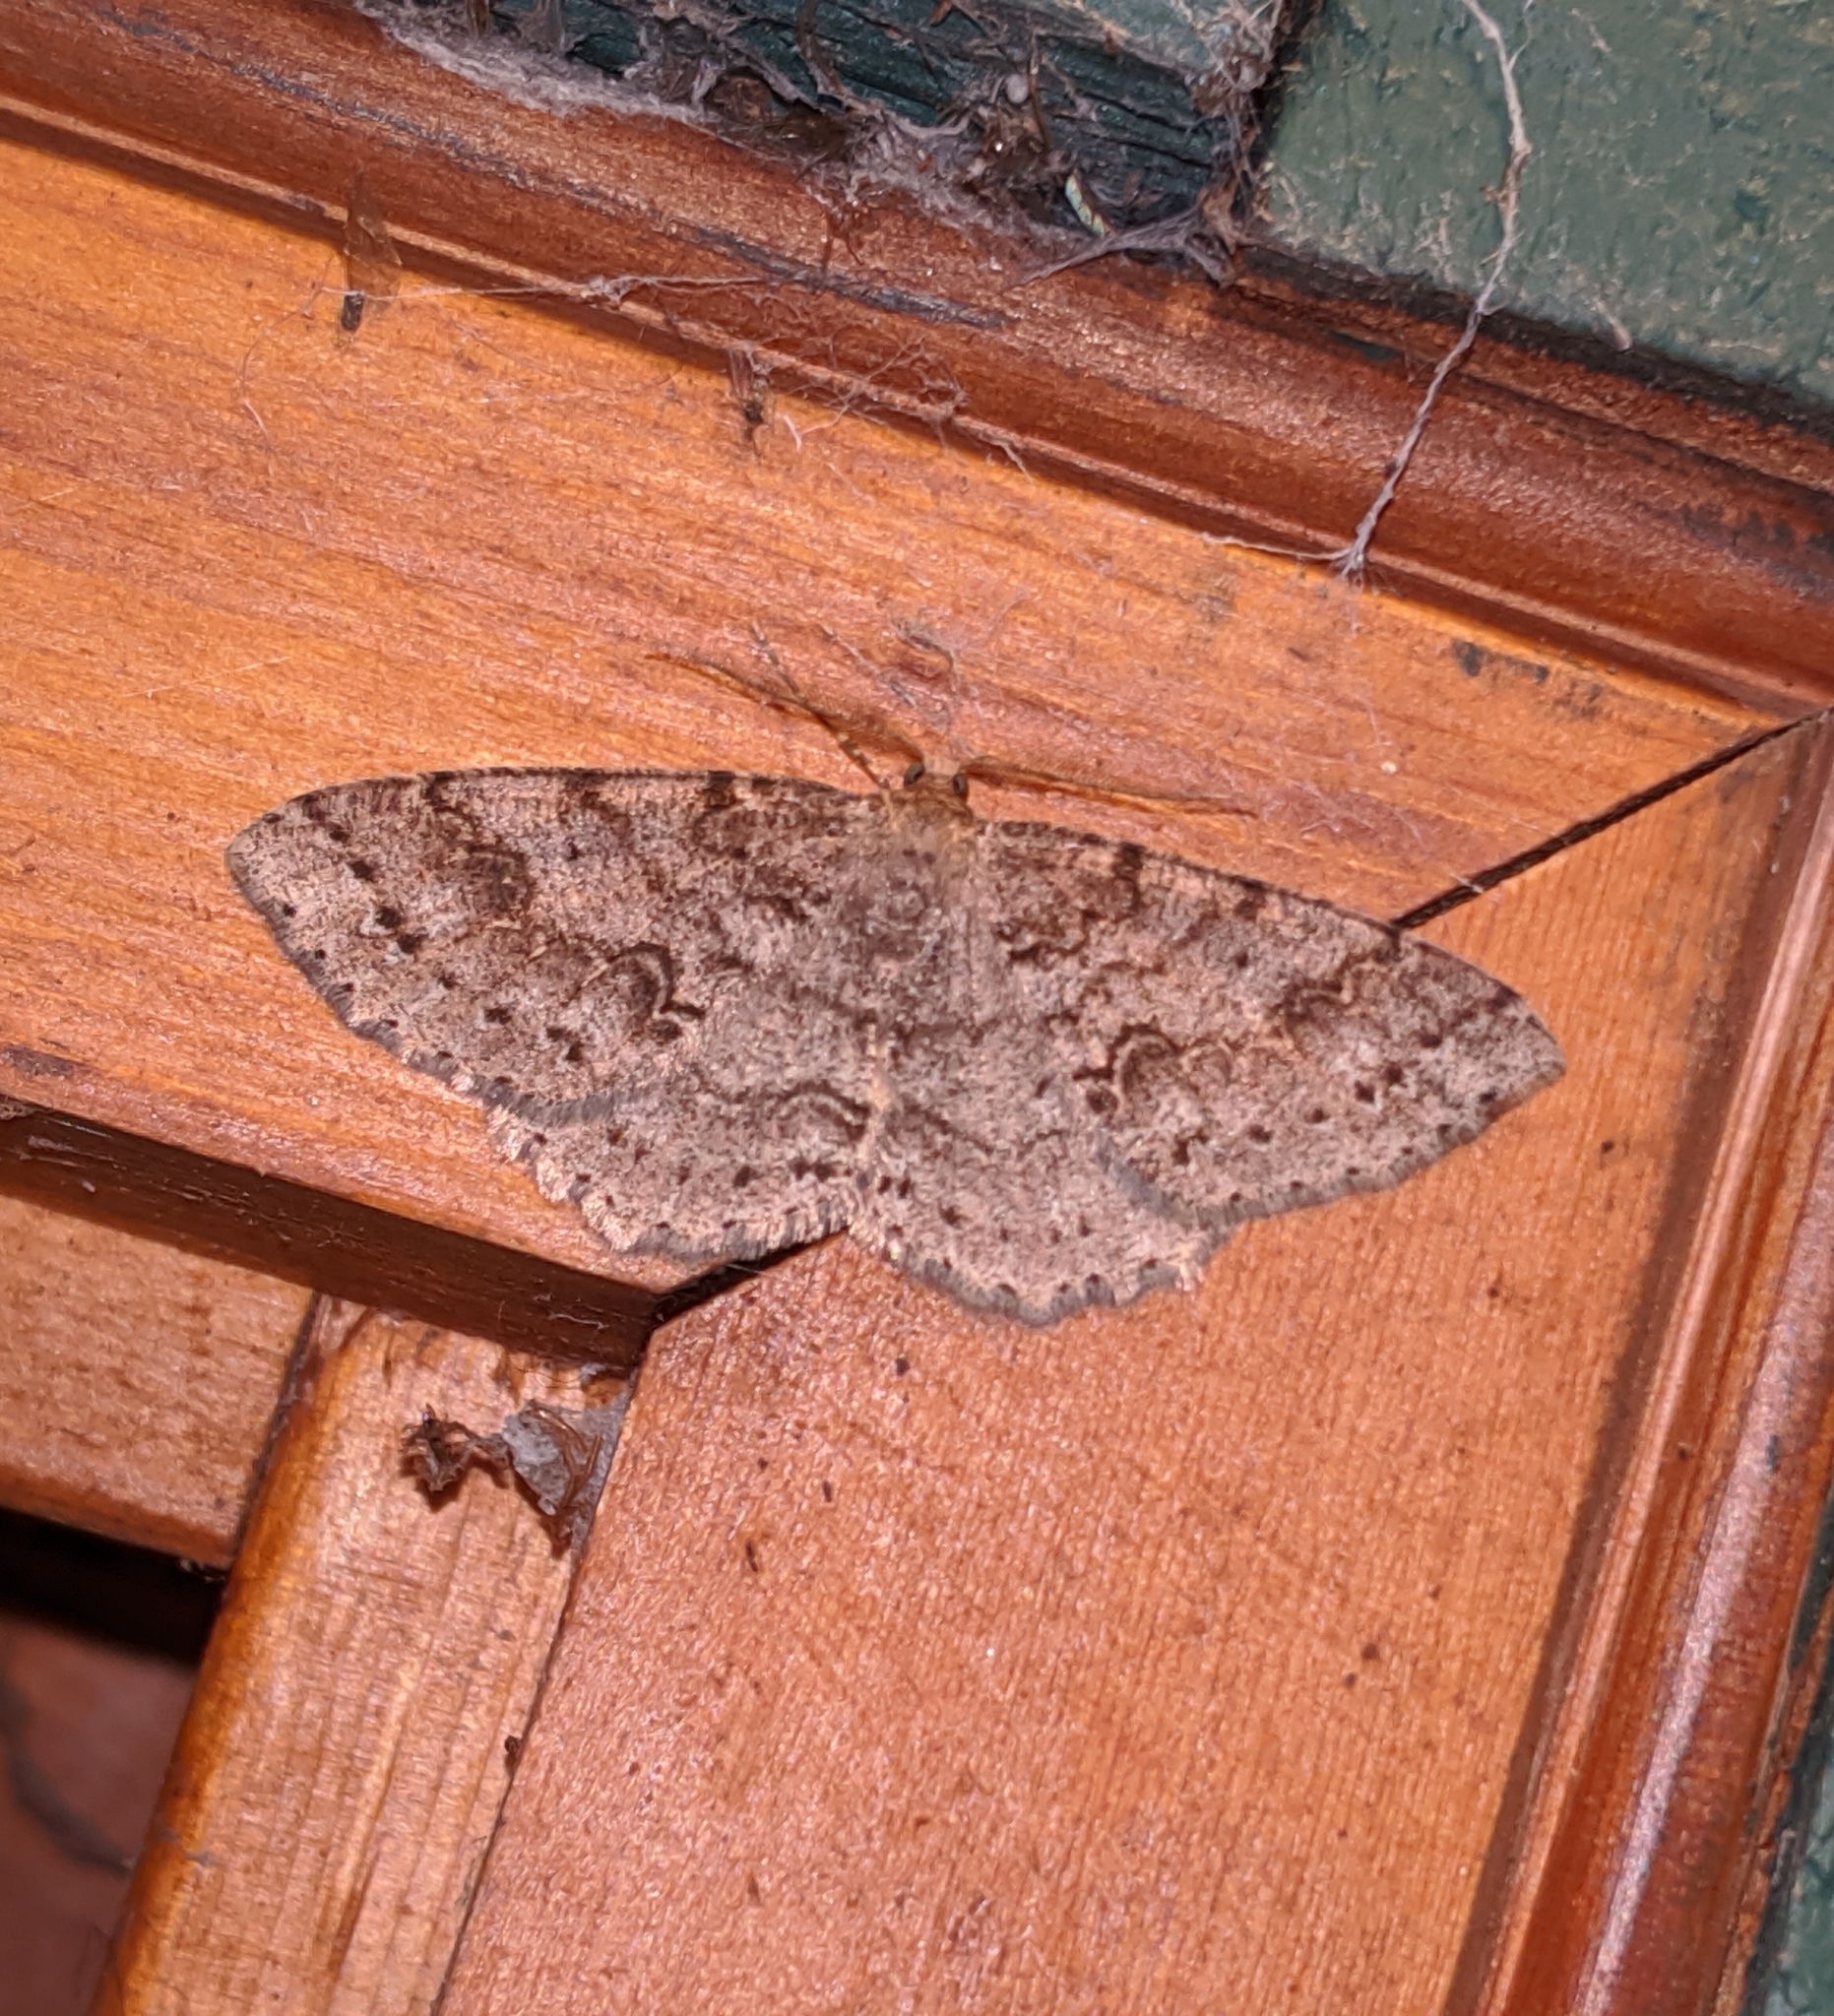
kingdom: Animalia
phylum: Arthropoda
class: Insecta
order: Lepidoptera
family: Geometridae
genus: Melanolophia
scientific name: Melanolophia imitata
